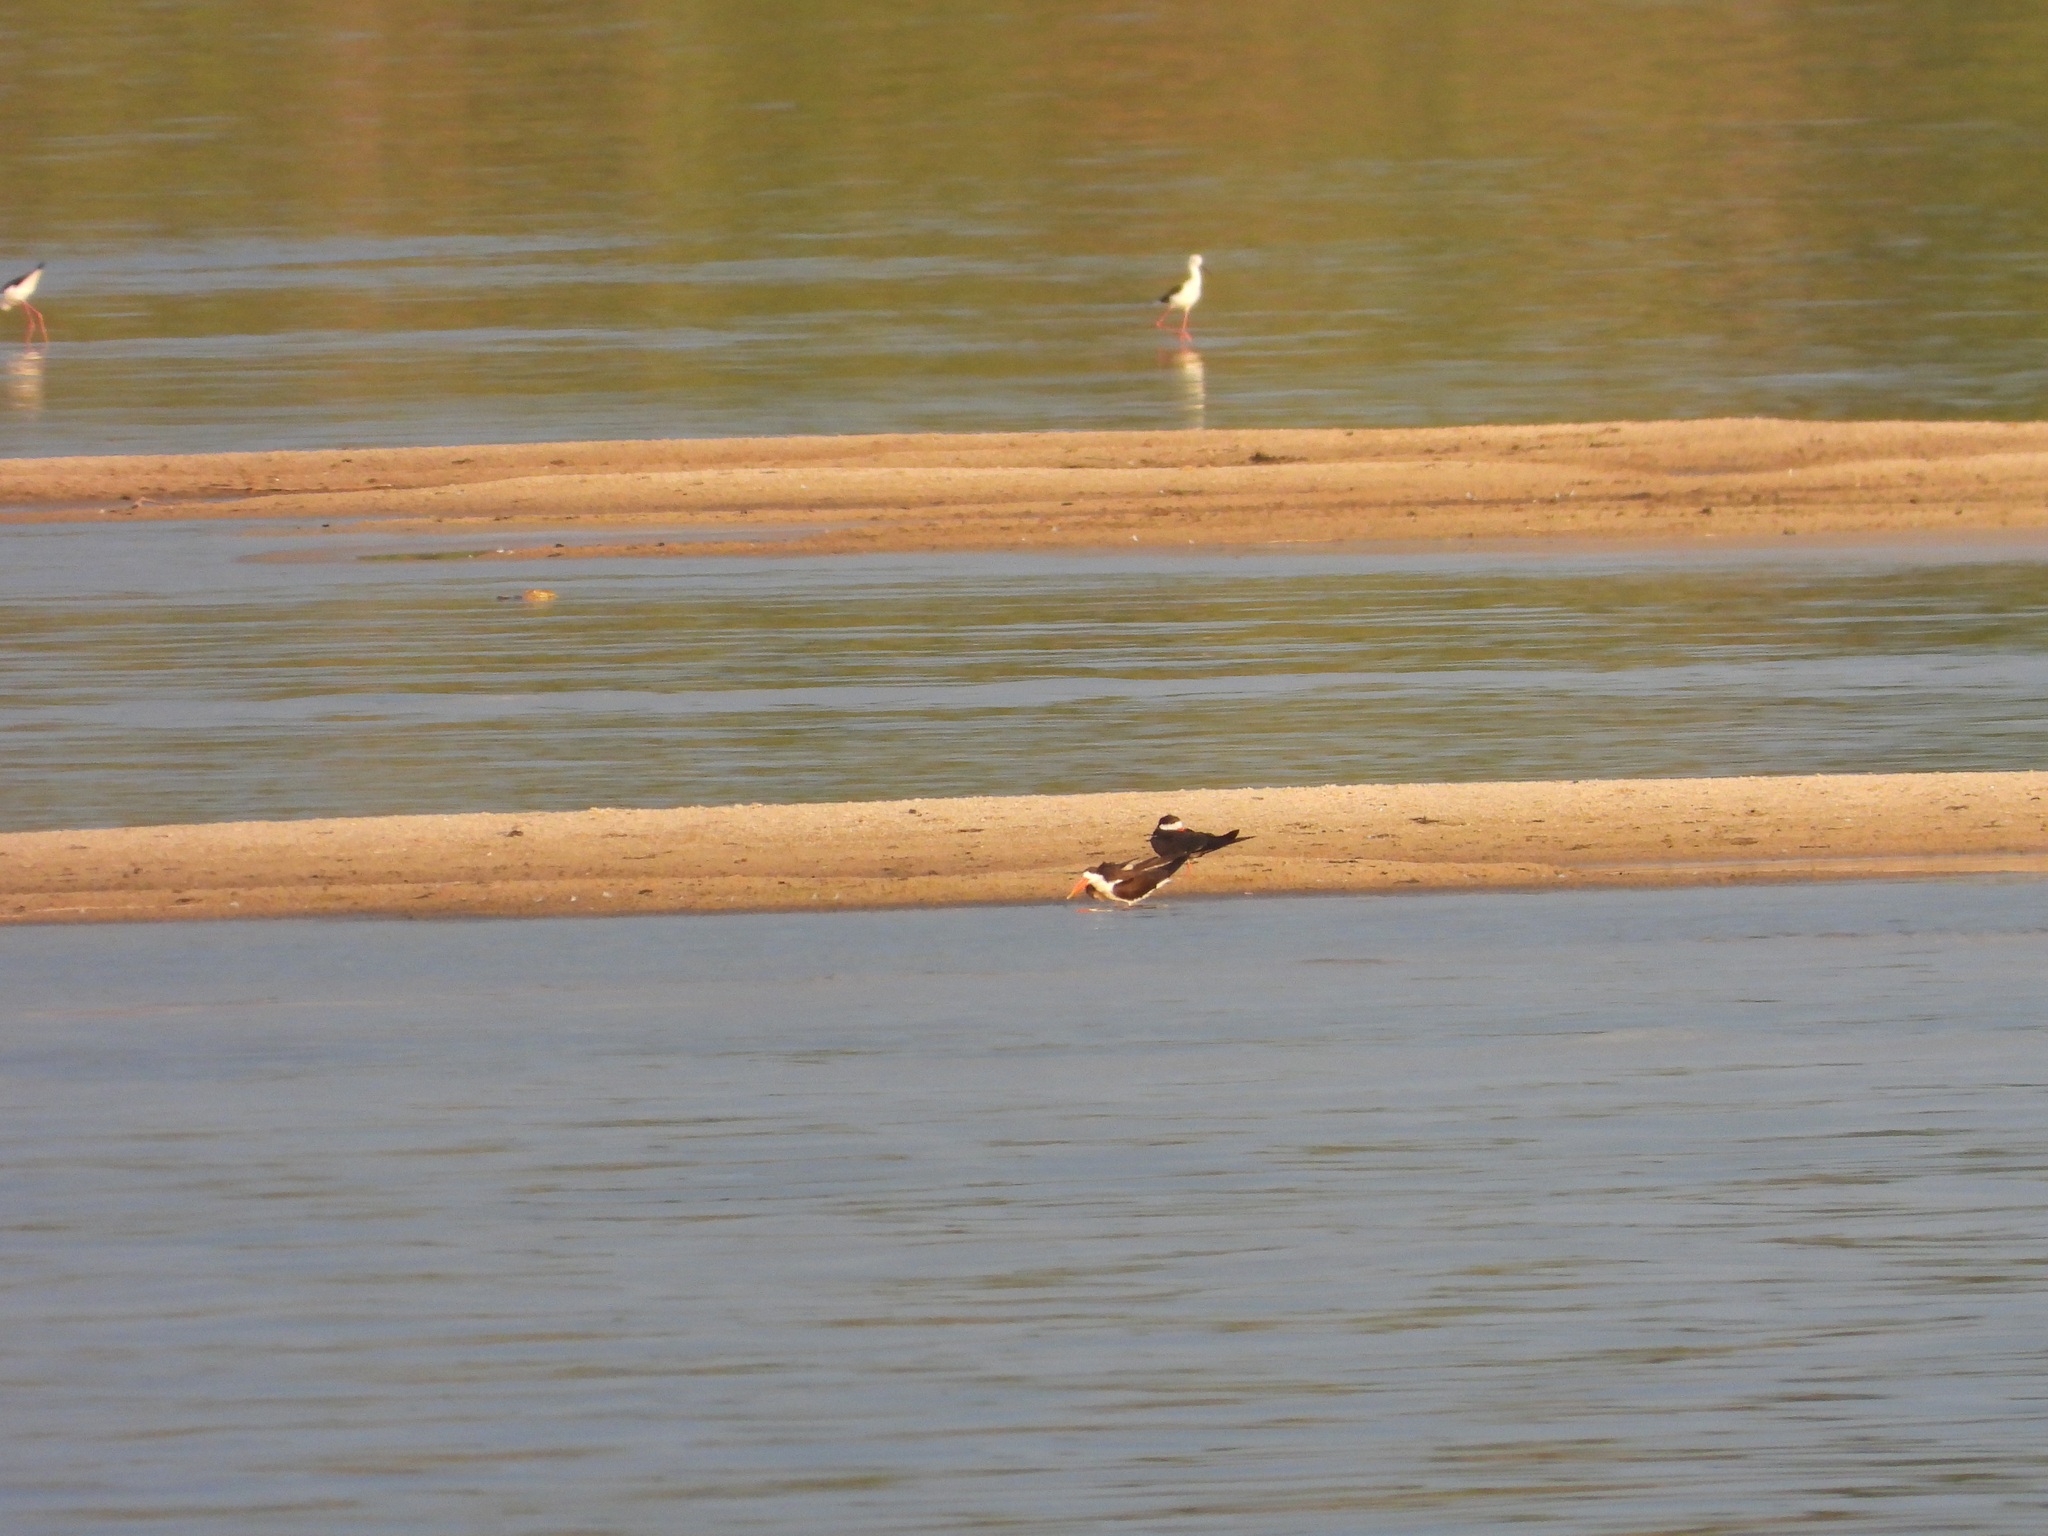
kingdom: Animalia
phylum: Chordata
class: Aves
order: Charadriiformes
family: Laridae
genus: Rynchops
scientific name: Rynchops flavirostris
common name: African skimmer
